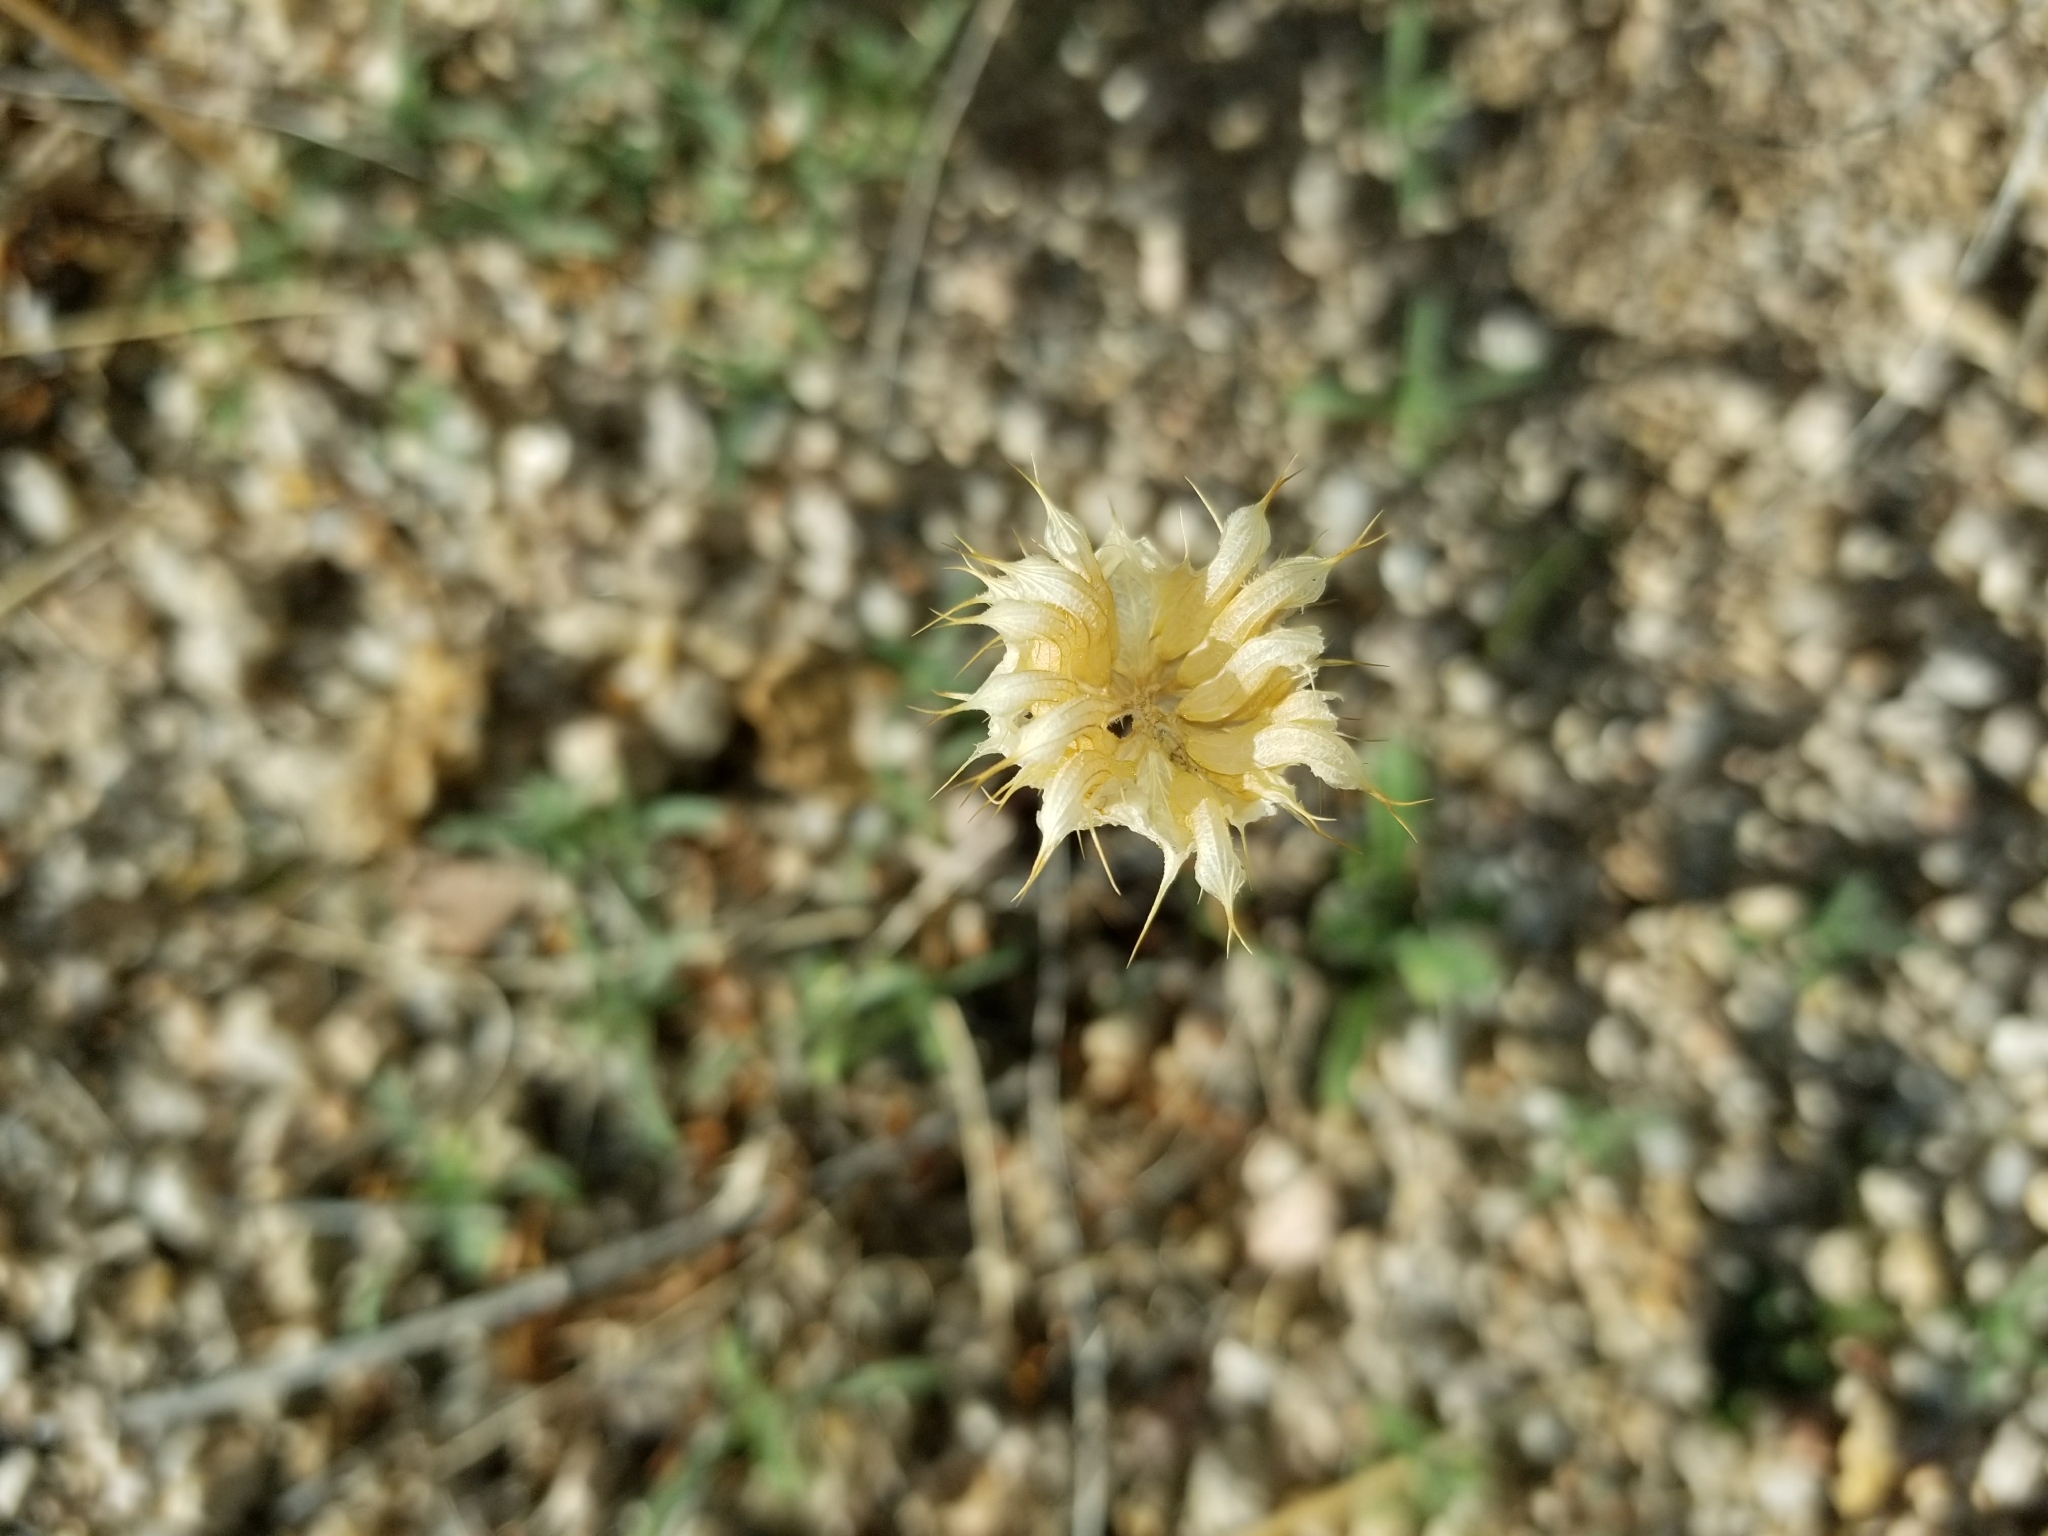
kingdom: Plantae
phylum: Tracheophyta
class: Magnoliopsida
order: Lamiales
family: Lamiaceae
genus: Salvia
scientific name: Salvia columbariae
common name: Chia
